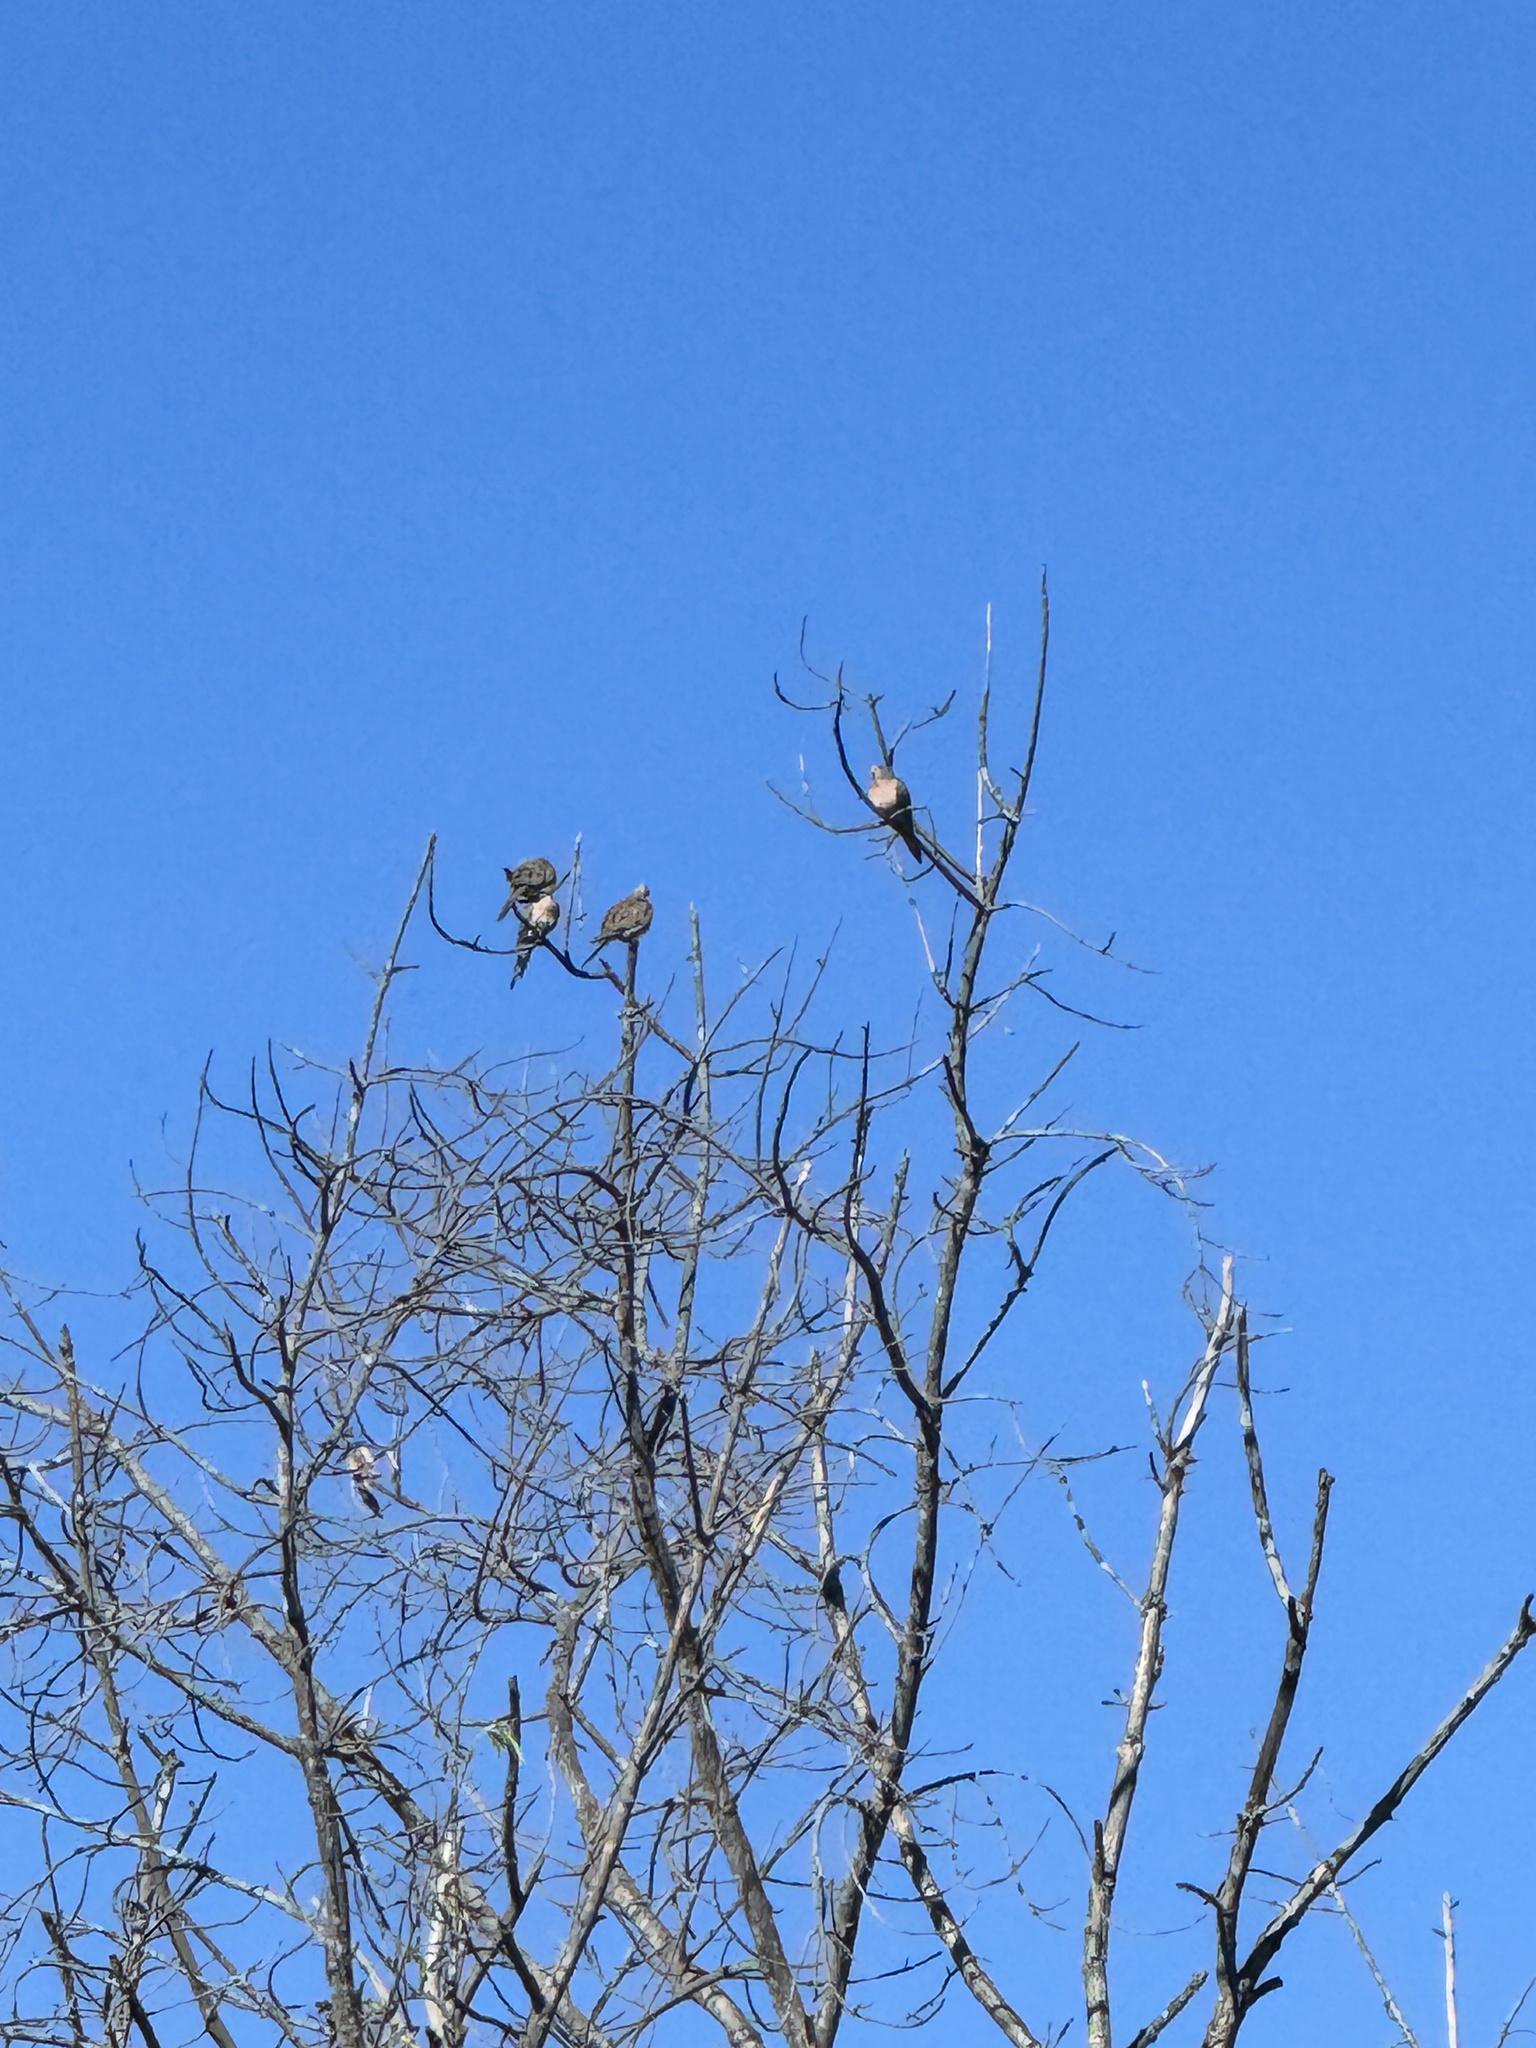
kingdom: Animalia
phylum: Chordata
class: Aves
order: Columbiformes
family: Columbidae
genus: Zenaida
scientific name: Zenaida macroura
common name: Mourning dove
